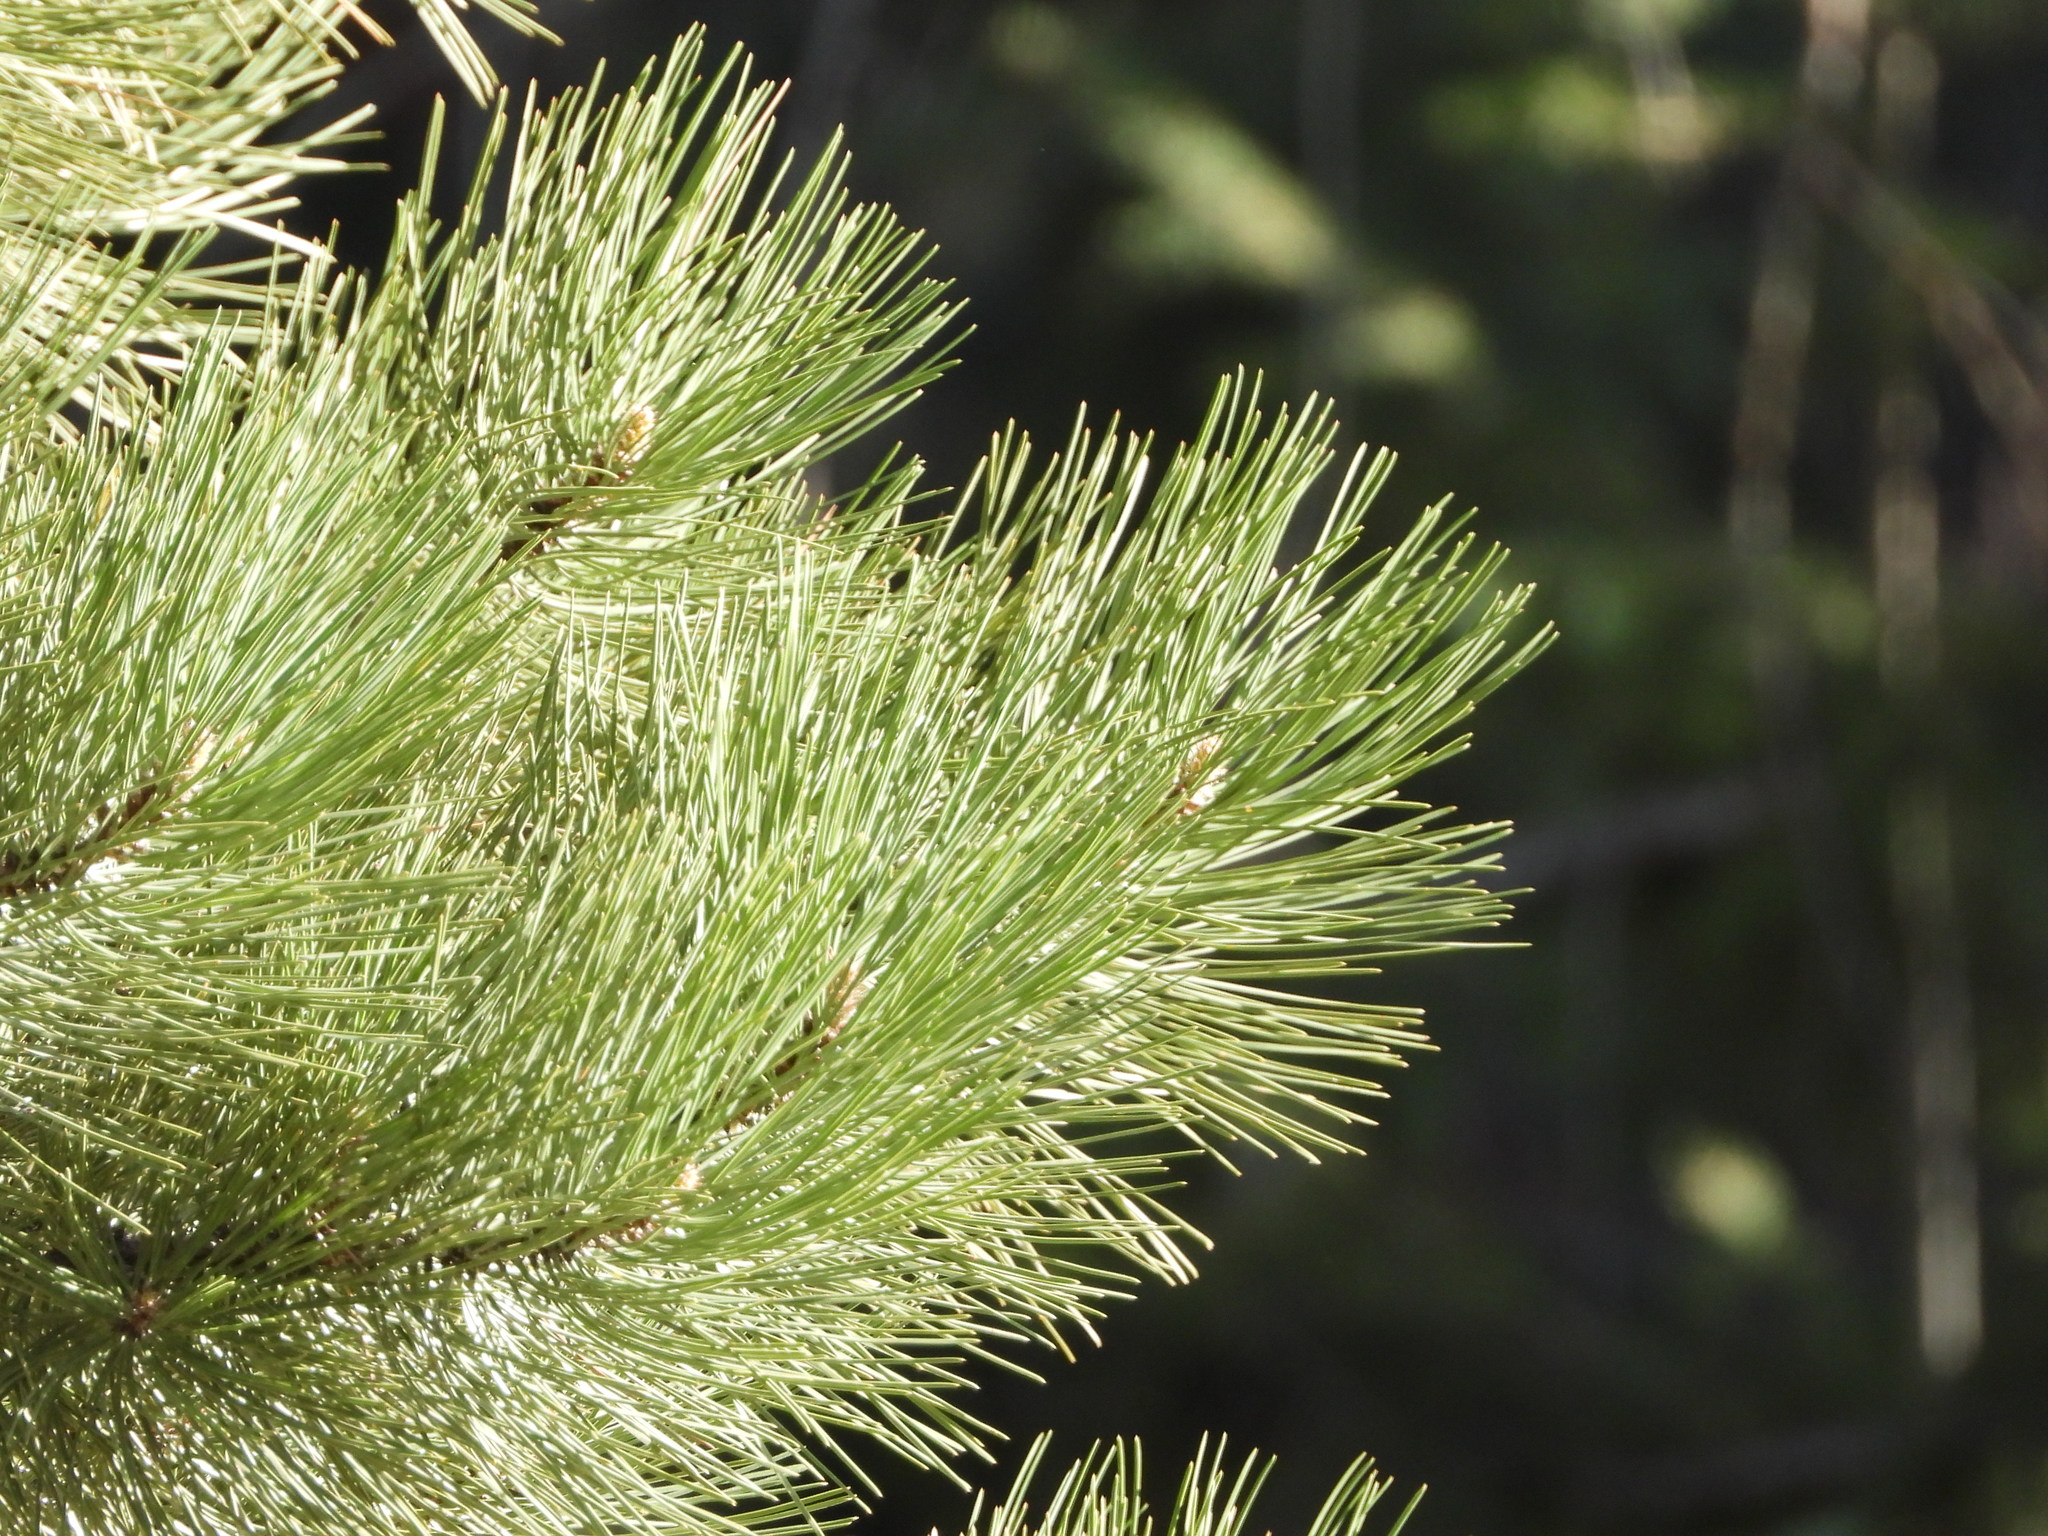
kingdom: Plantae
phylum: Tracheophyta
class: Pinopsida
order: Pinales
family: Pinaceae
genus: Pinus
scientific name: Pinus ponderosa
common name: Western yellow-pine
